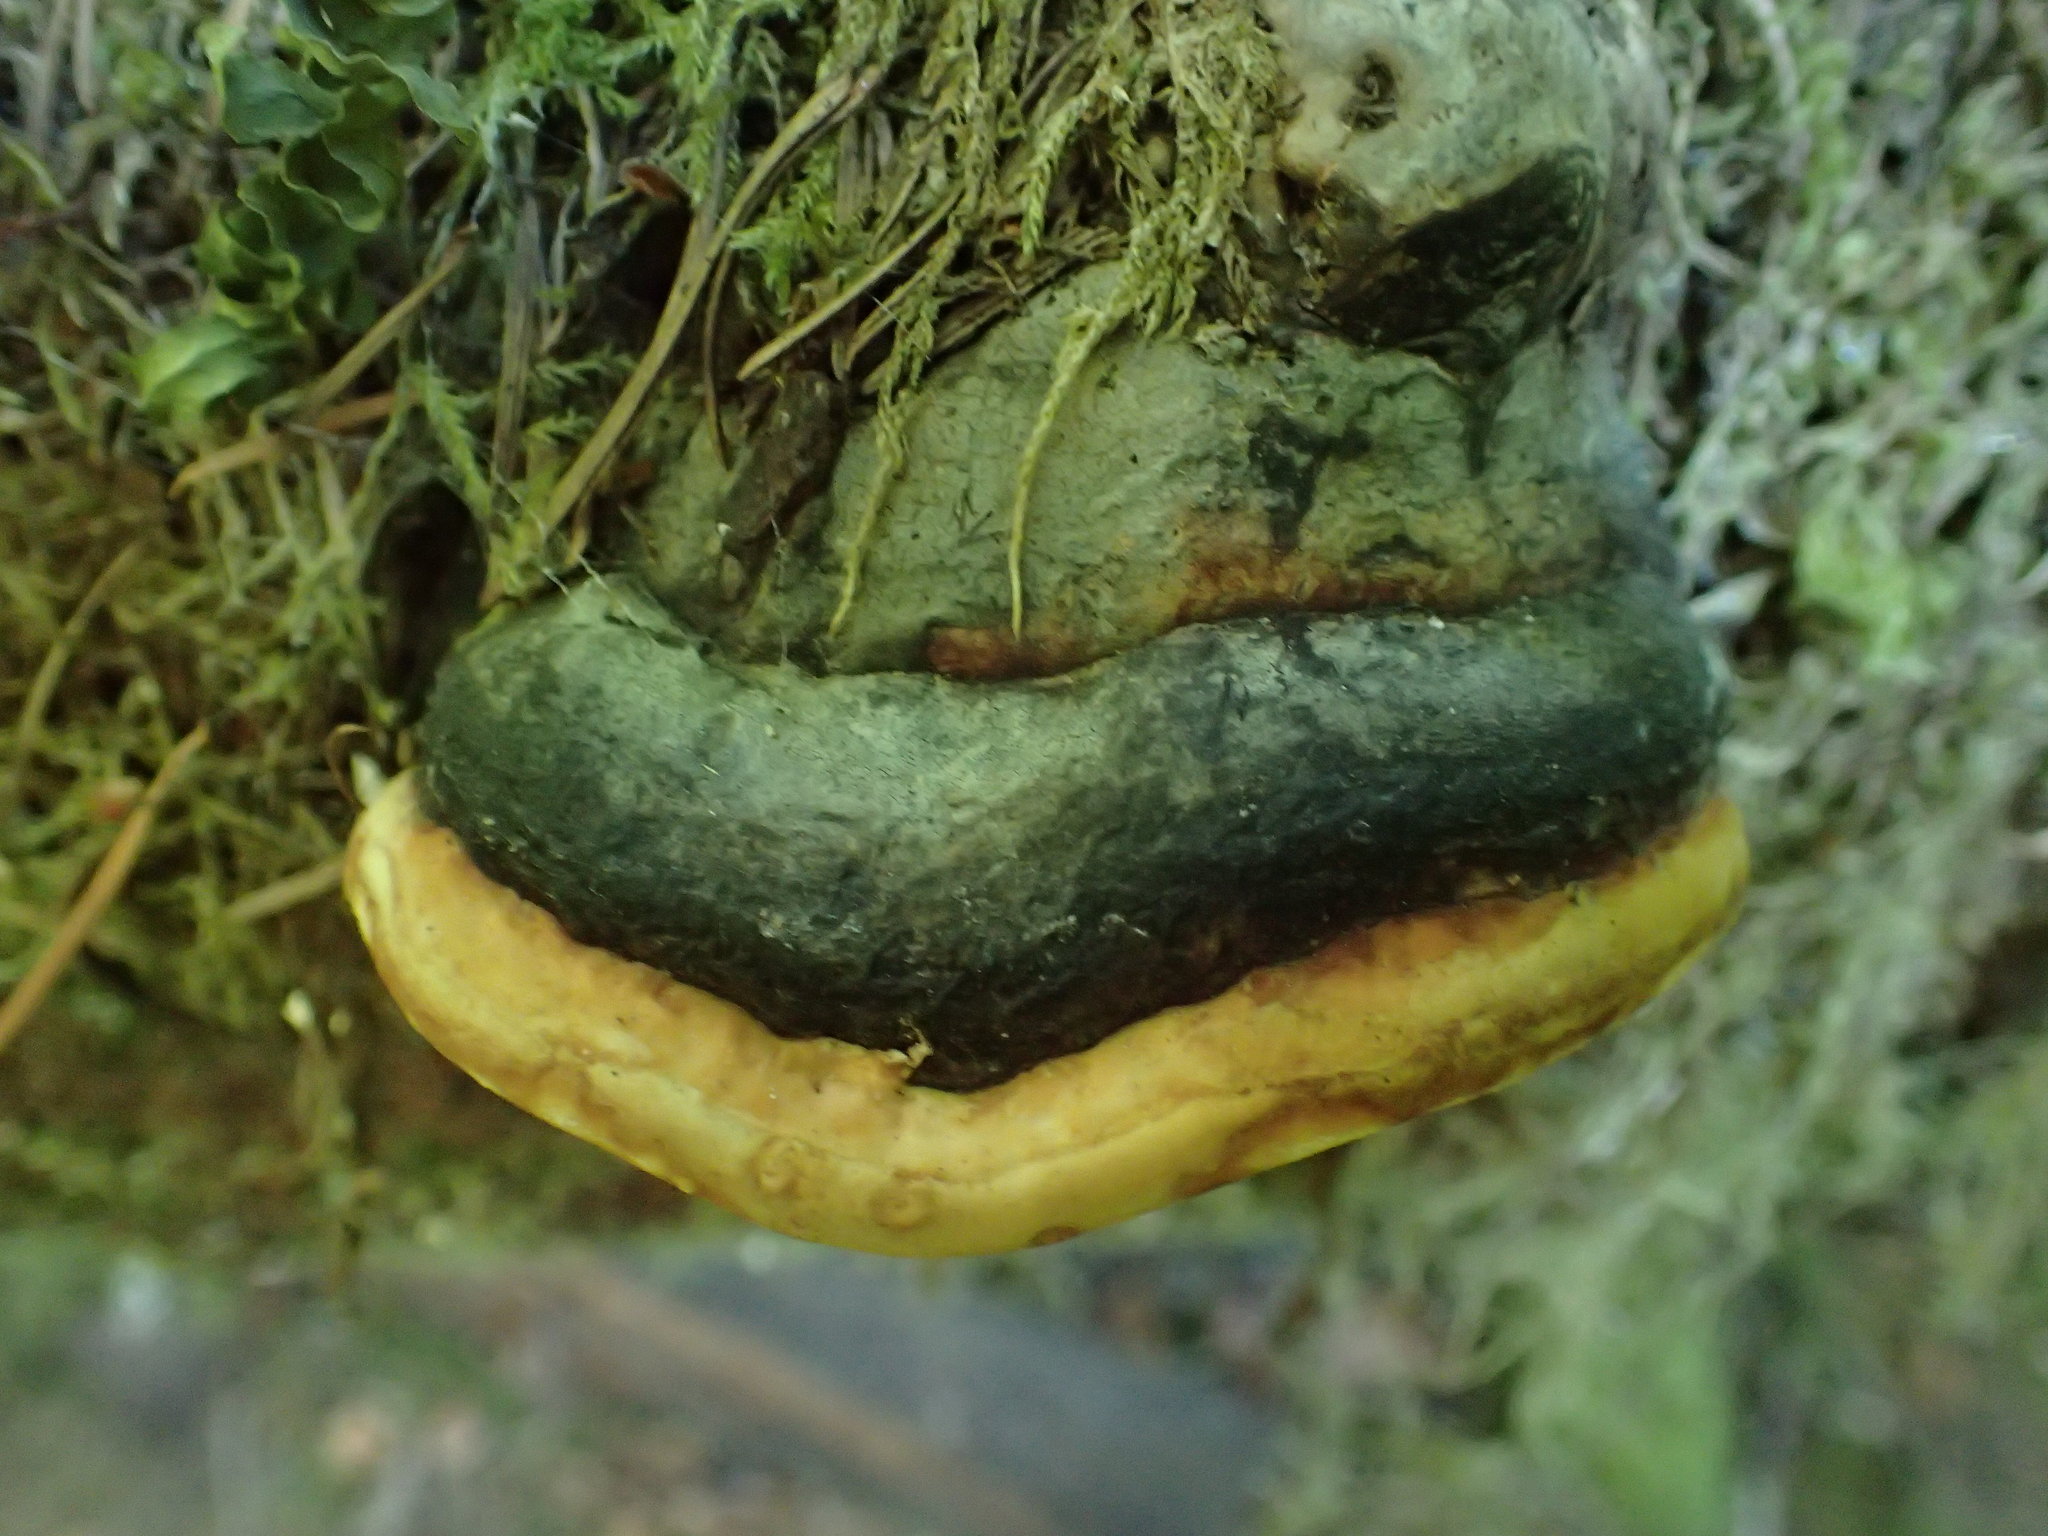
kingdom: Fungi
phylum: Basidiomycota
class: Agaricomycetes
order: Polyporales
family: Fomitopsidaceae
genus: Fomitopsis
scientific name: Fomitopsis mounceae
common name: Northern red belt
